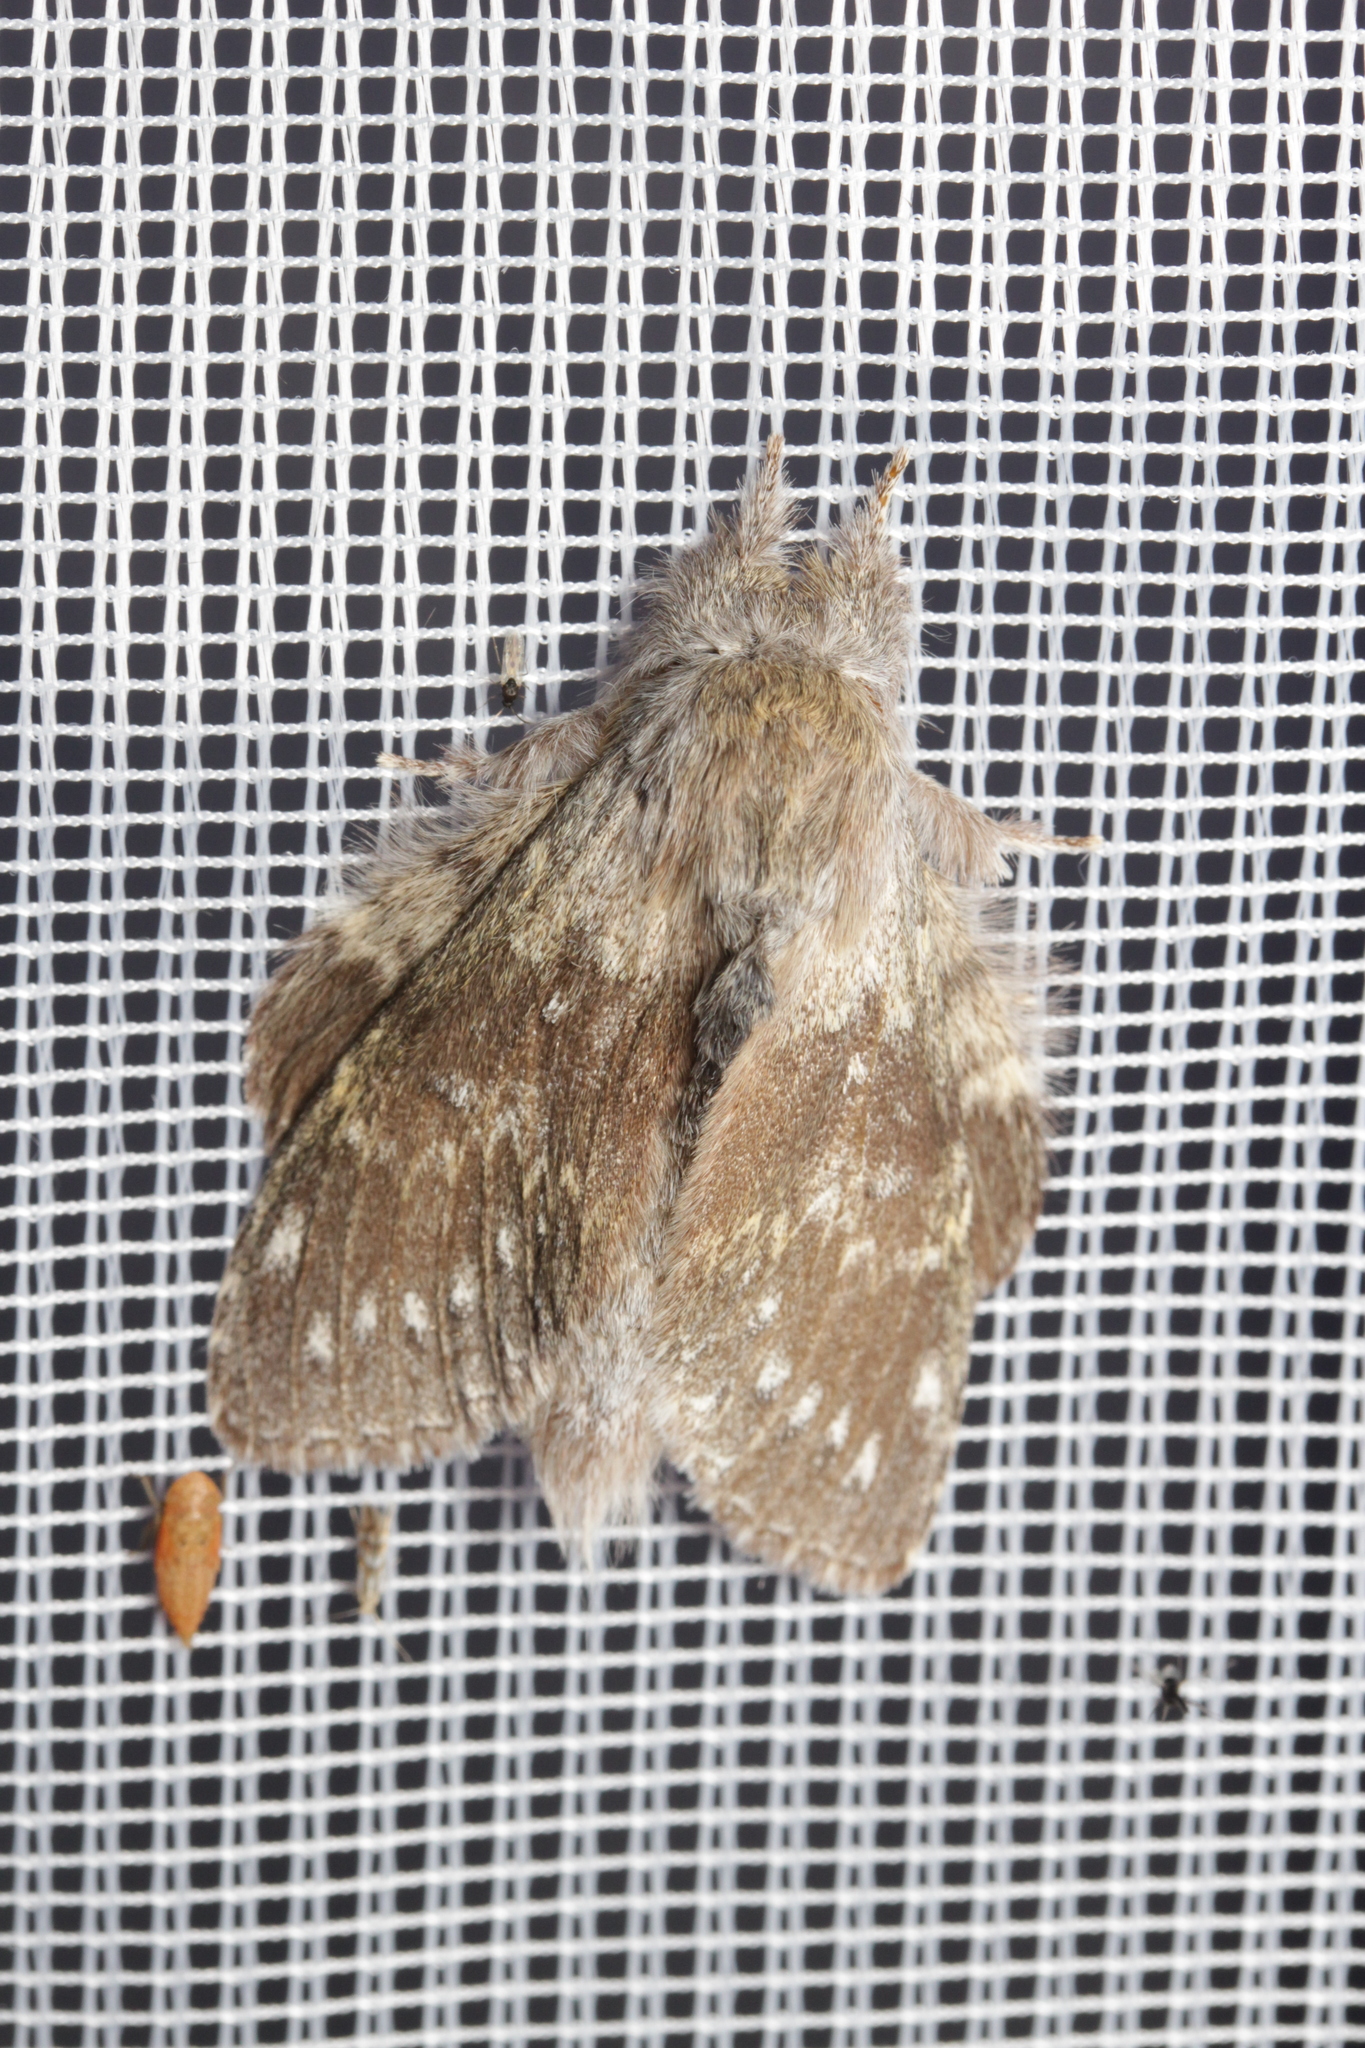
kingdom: Animalia
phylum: Arthropoda
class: Insecta
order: Lepidoptera
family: Notodontidae
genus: Stauropus
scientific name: Stauropus fagi
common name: Lobster moth
